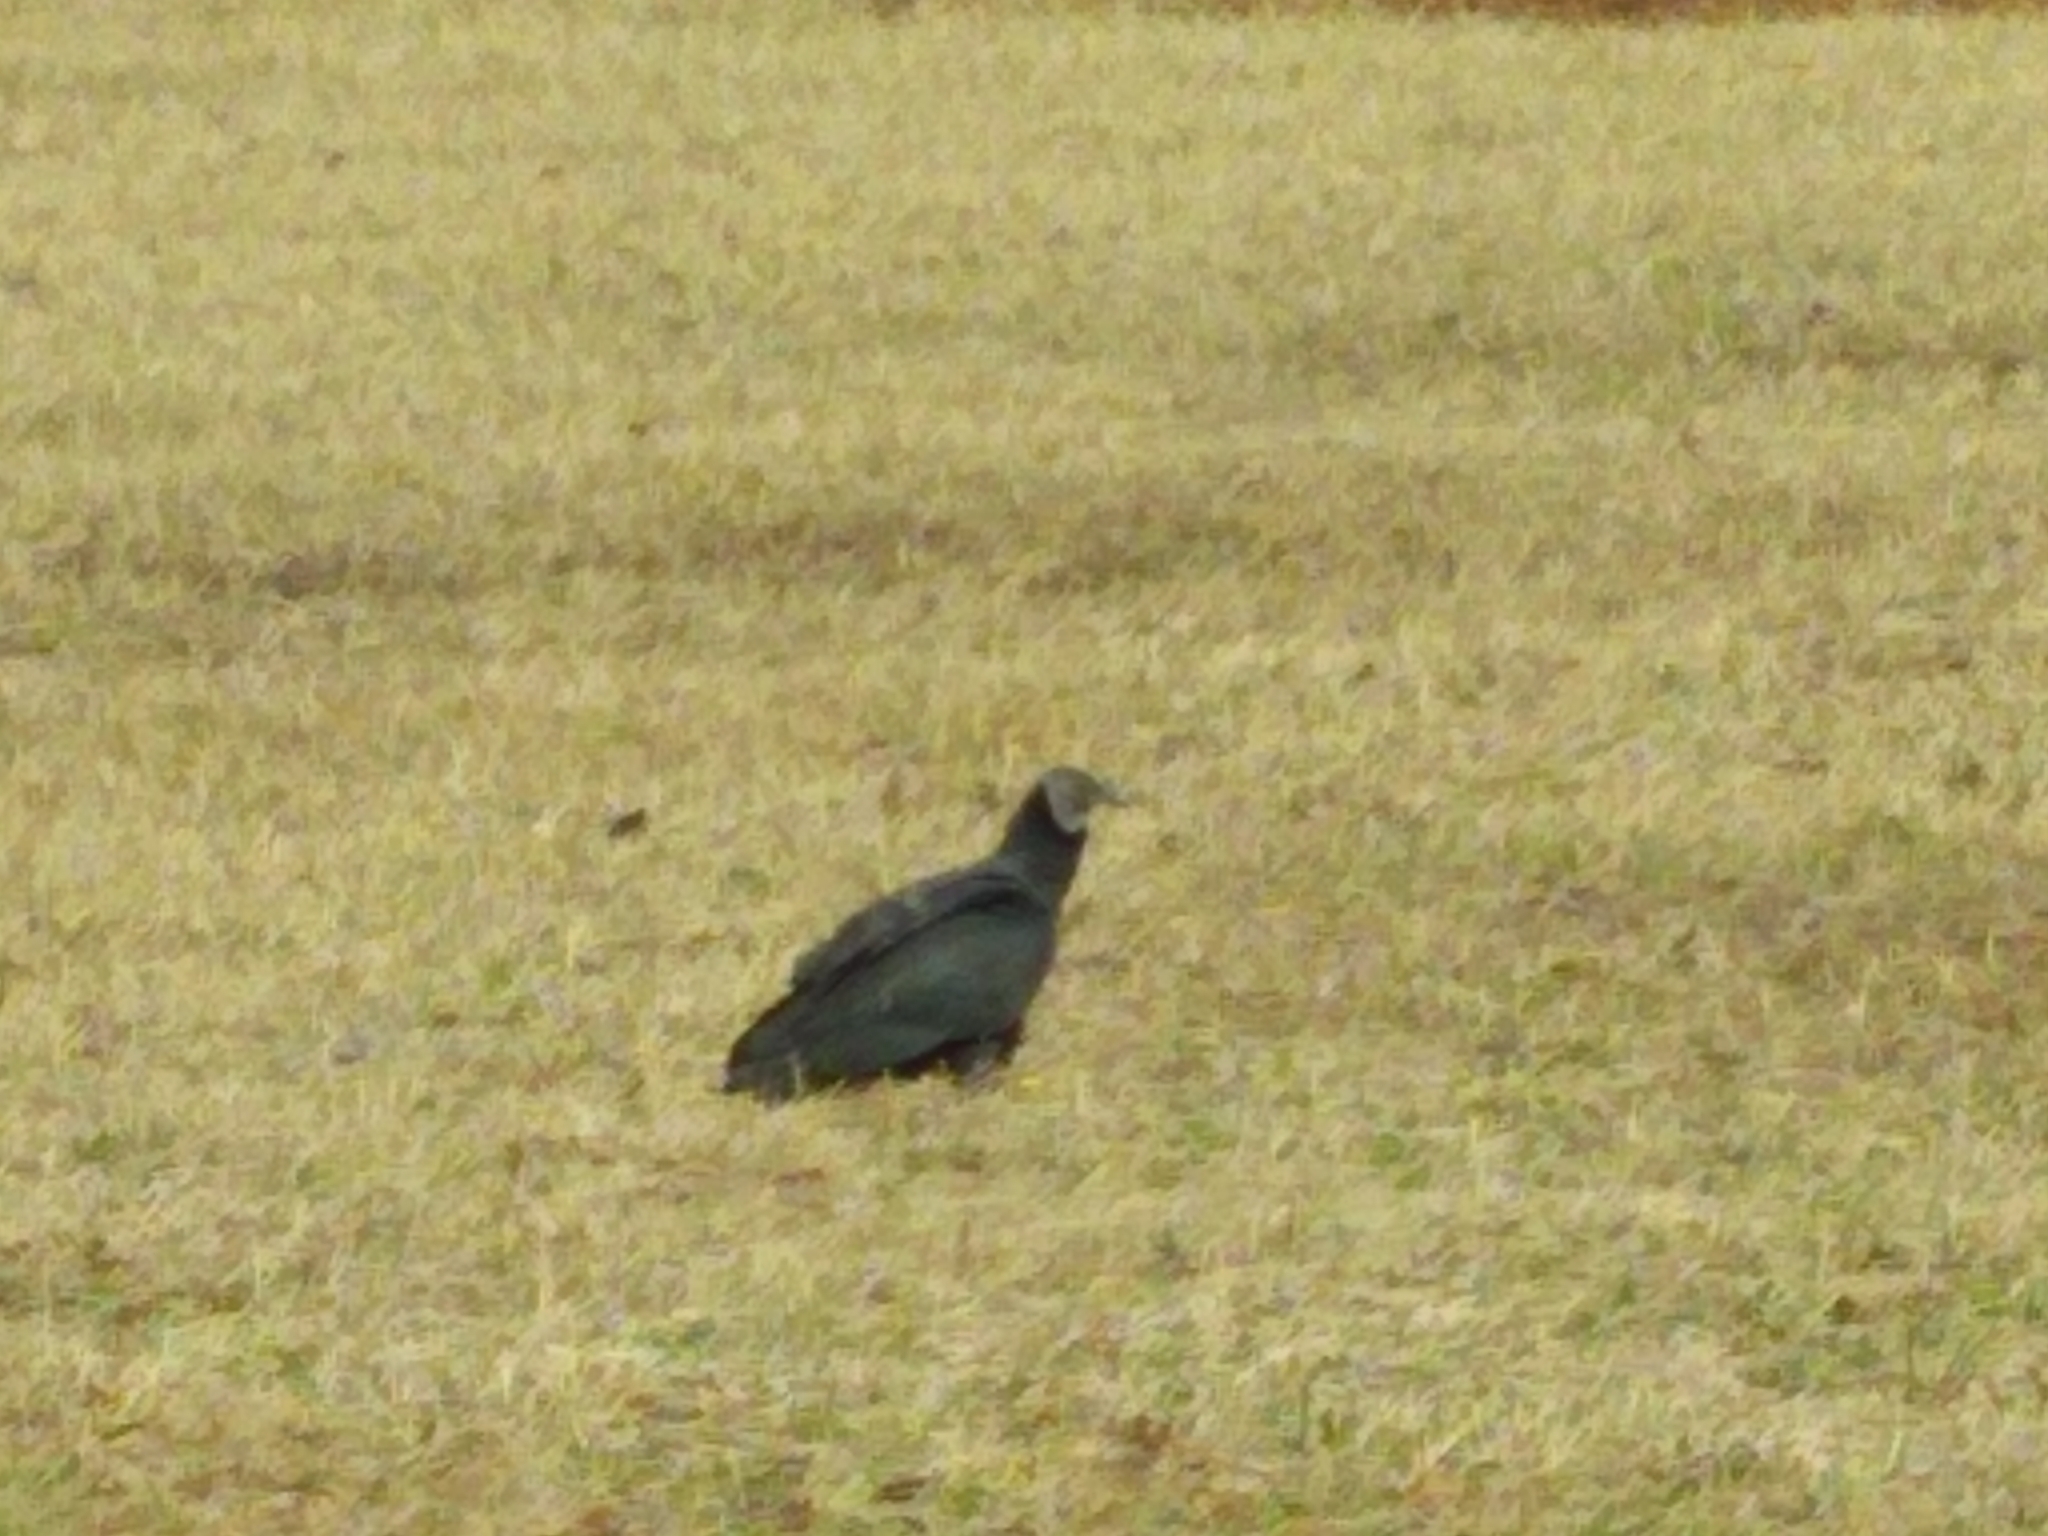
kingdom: Animalia
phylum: Chordata
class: Aves
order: Accipitriformes
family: Cathartidae
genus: Coragyps
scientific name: Coragyps atratus
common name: Black vulture
